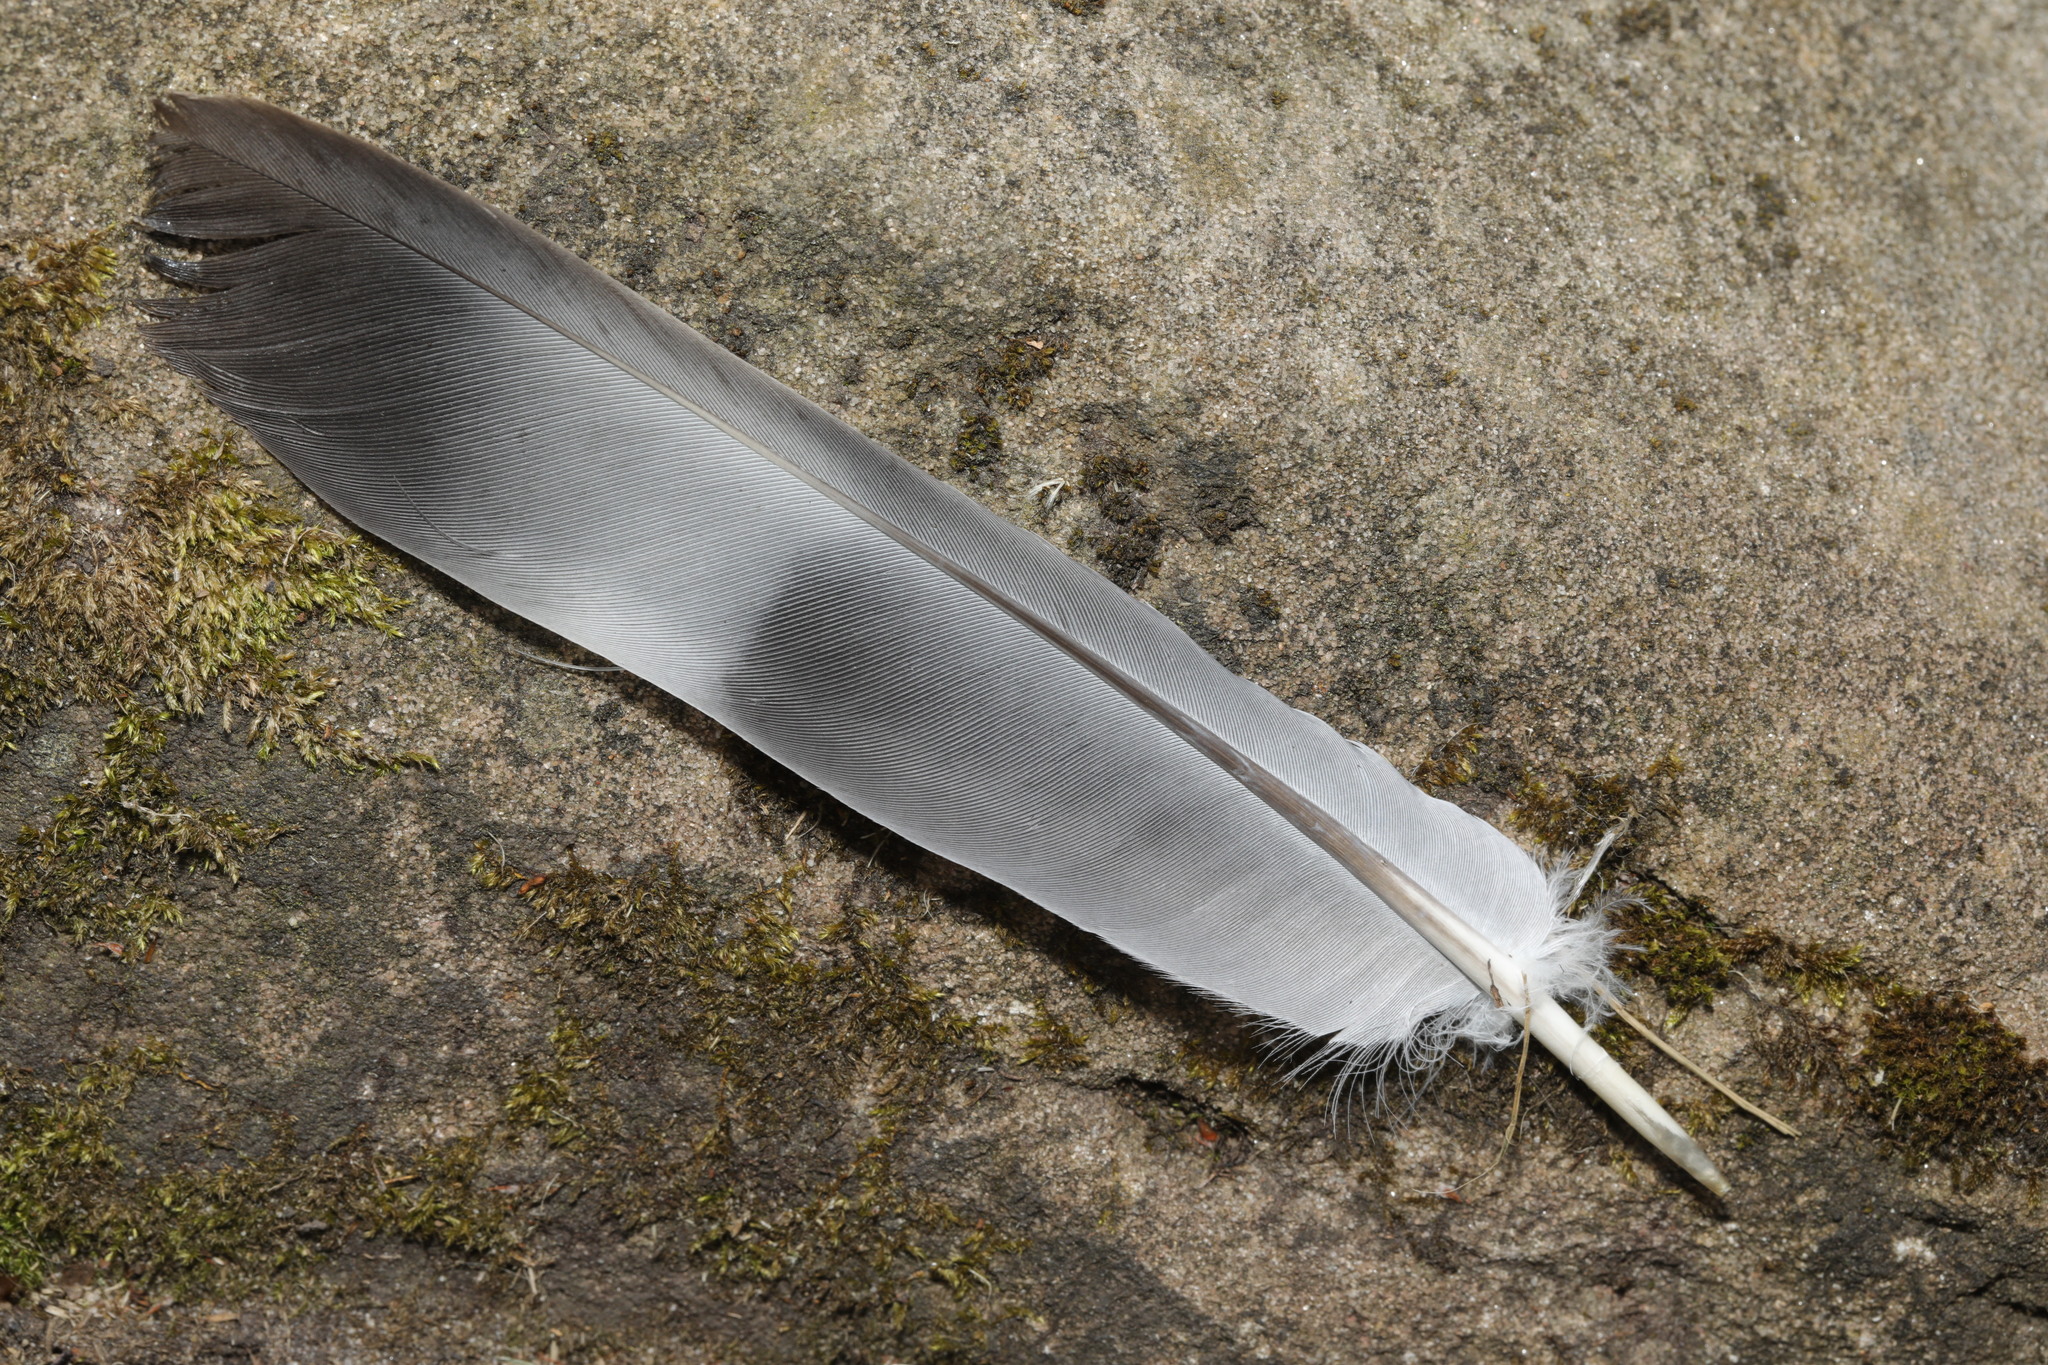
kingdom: Animalia
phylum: Chordata
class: Aves
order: Columbiformes
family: Columbidae
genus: Columba
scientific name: Columba palumbus
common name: Common wood pigeon
